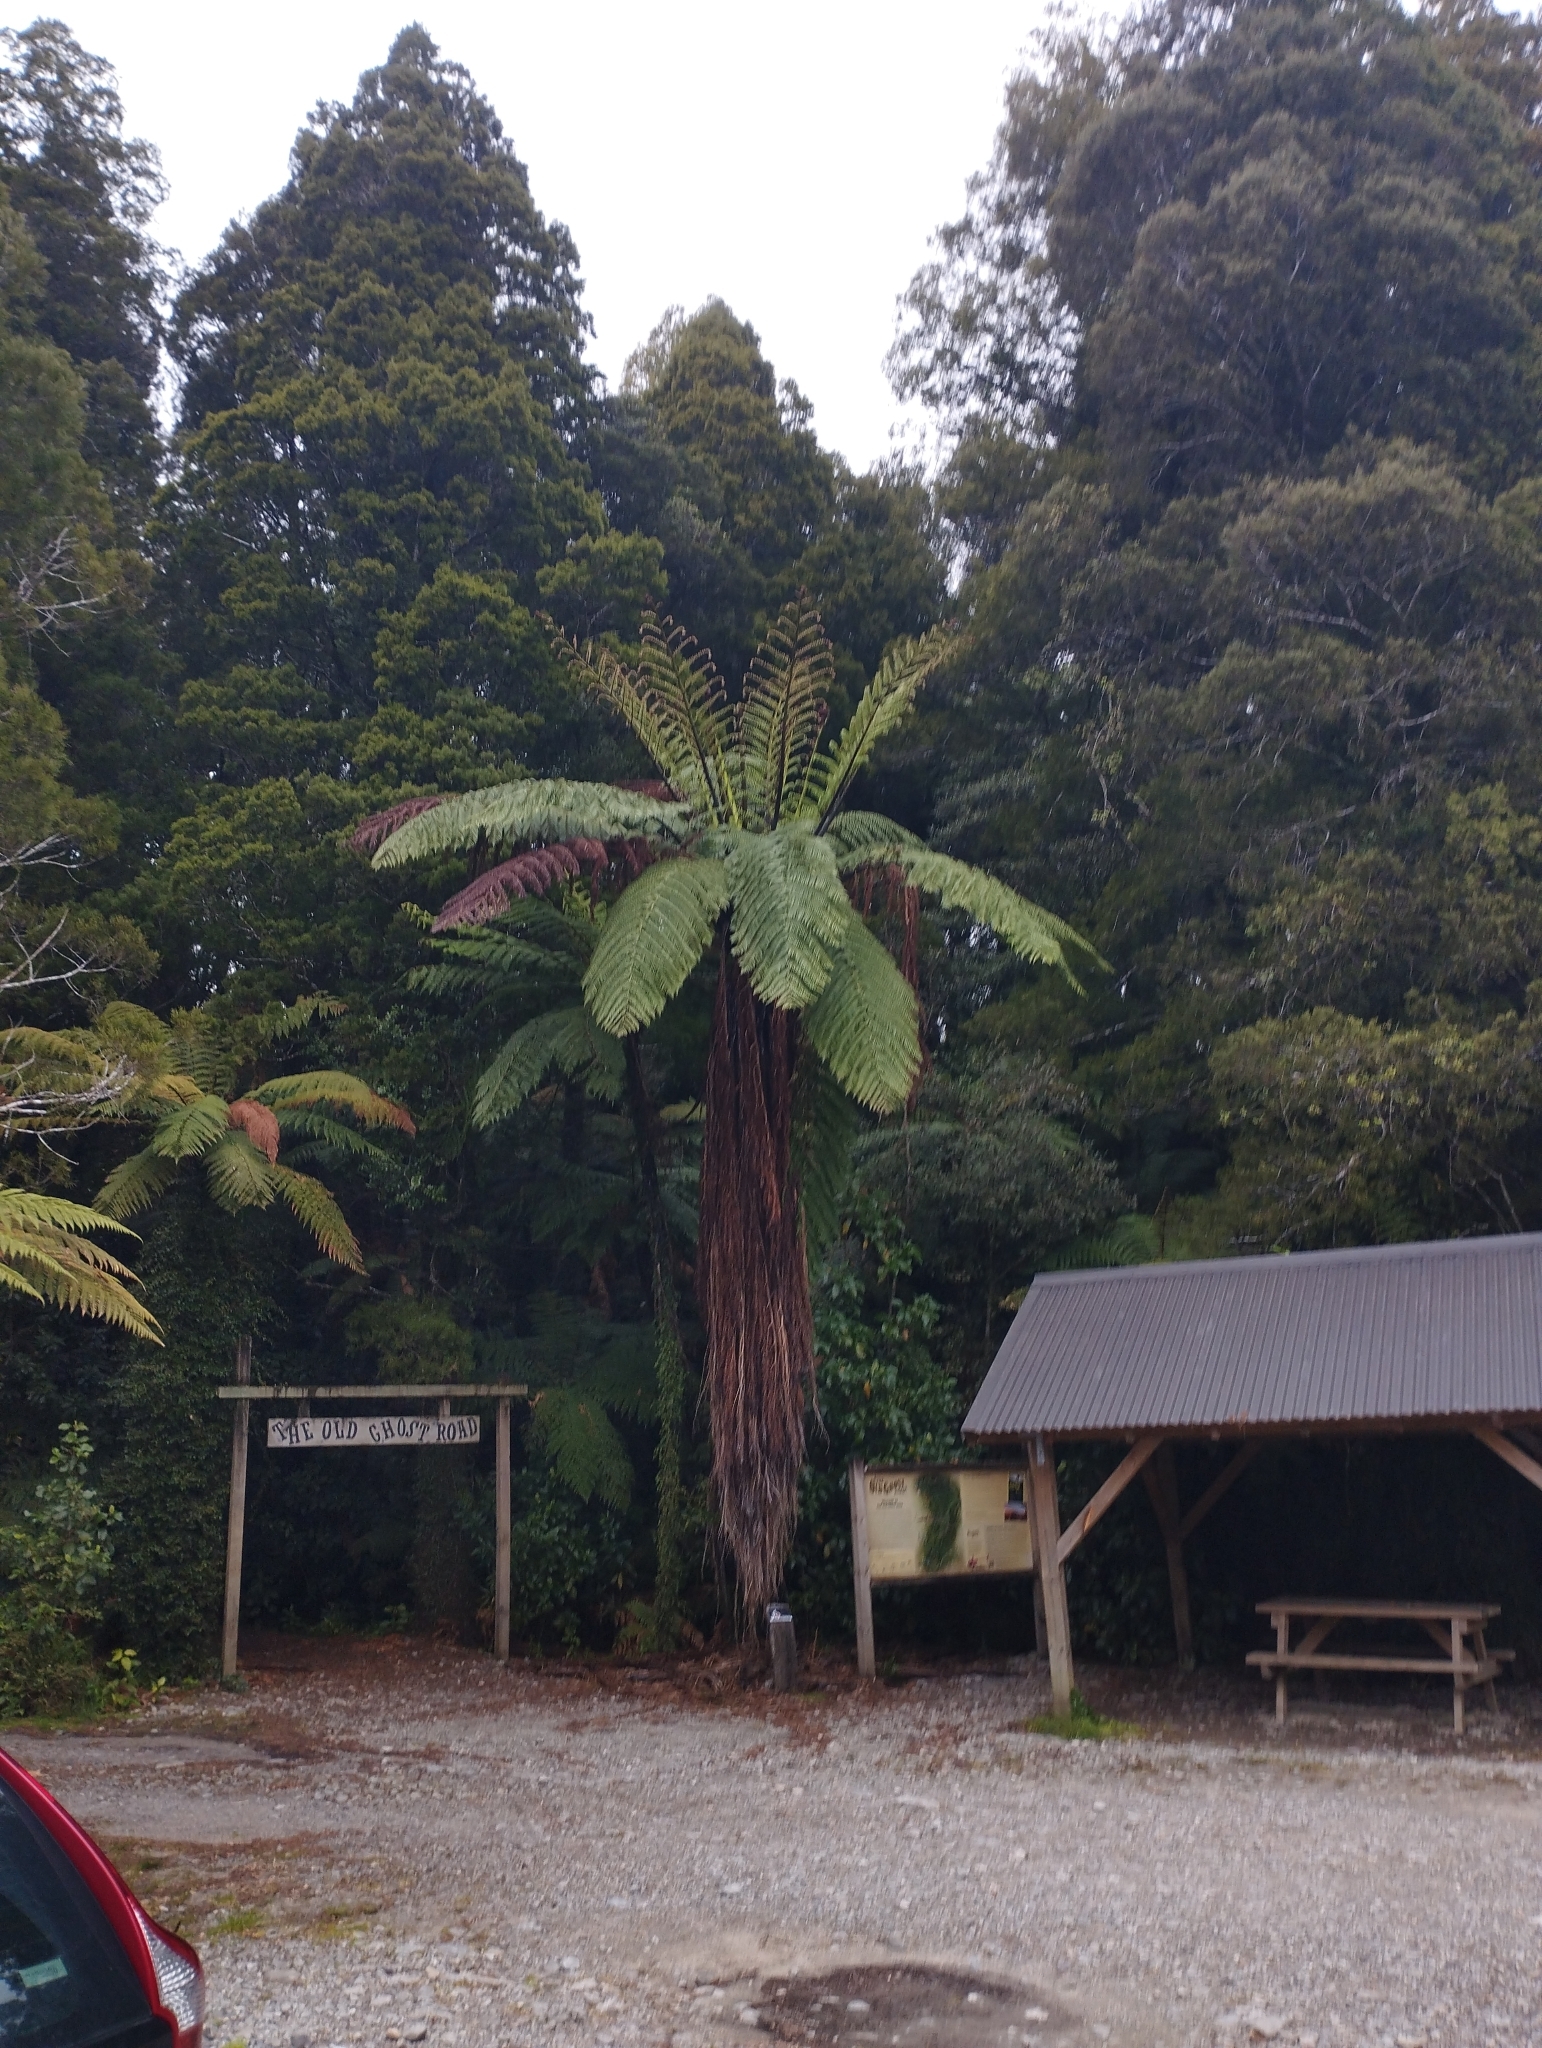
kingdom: Plantae
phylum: Tracheophyta
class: Polypodiopsida
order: Cyatheales
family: Cyatheaceae
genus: Sphaeropteris
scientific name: Sphaeropteris medullaris
